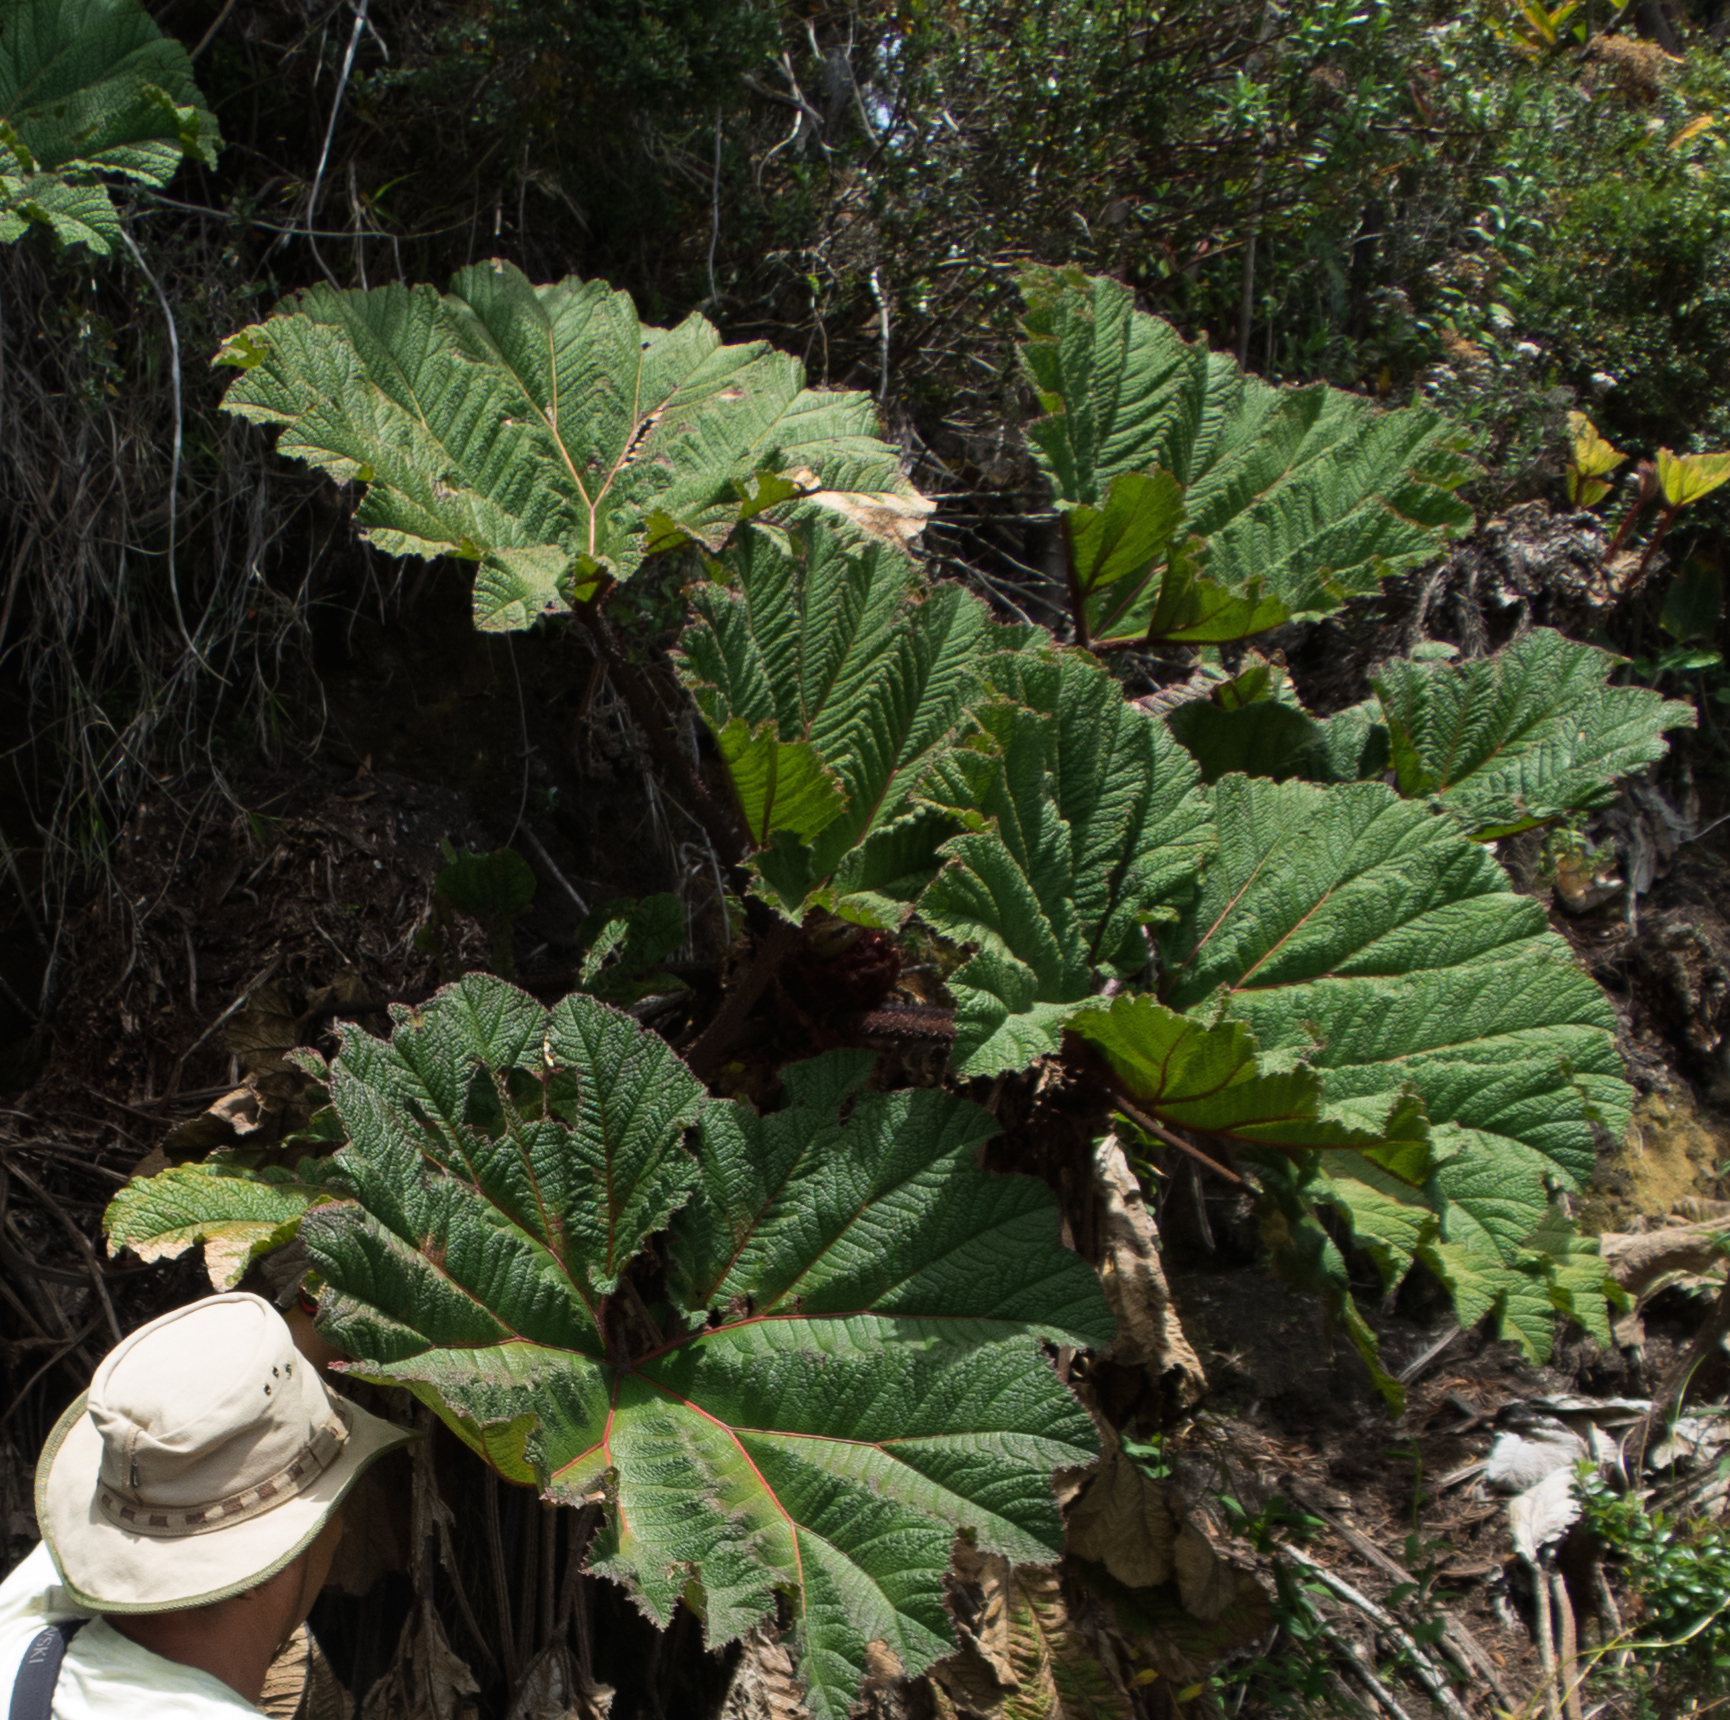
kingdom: Plantae
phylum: Tracheophyta
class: Magnoliopsida
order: Gunnerales
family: Gunneraceae
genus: Gunnera
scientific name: Gunnera insignis
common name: Poorman's umbrella
